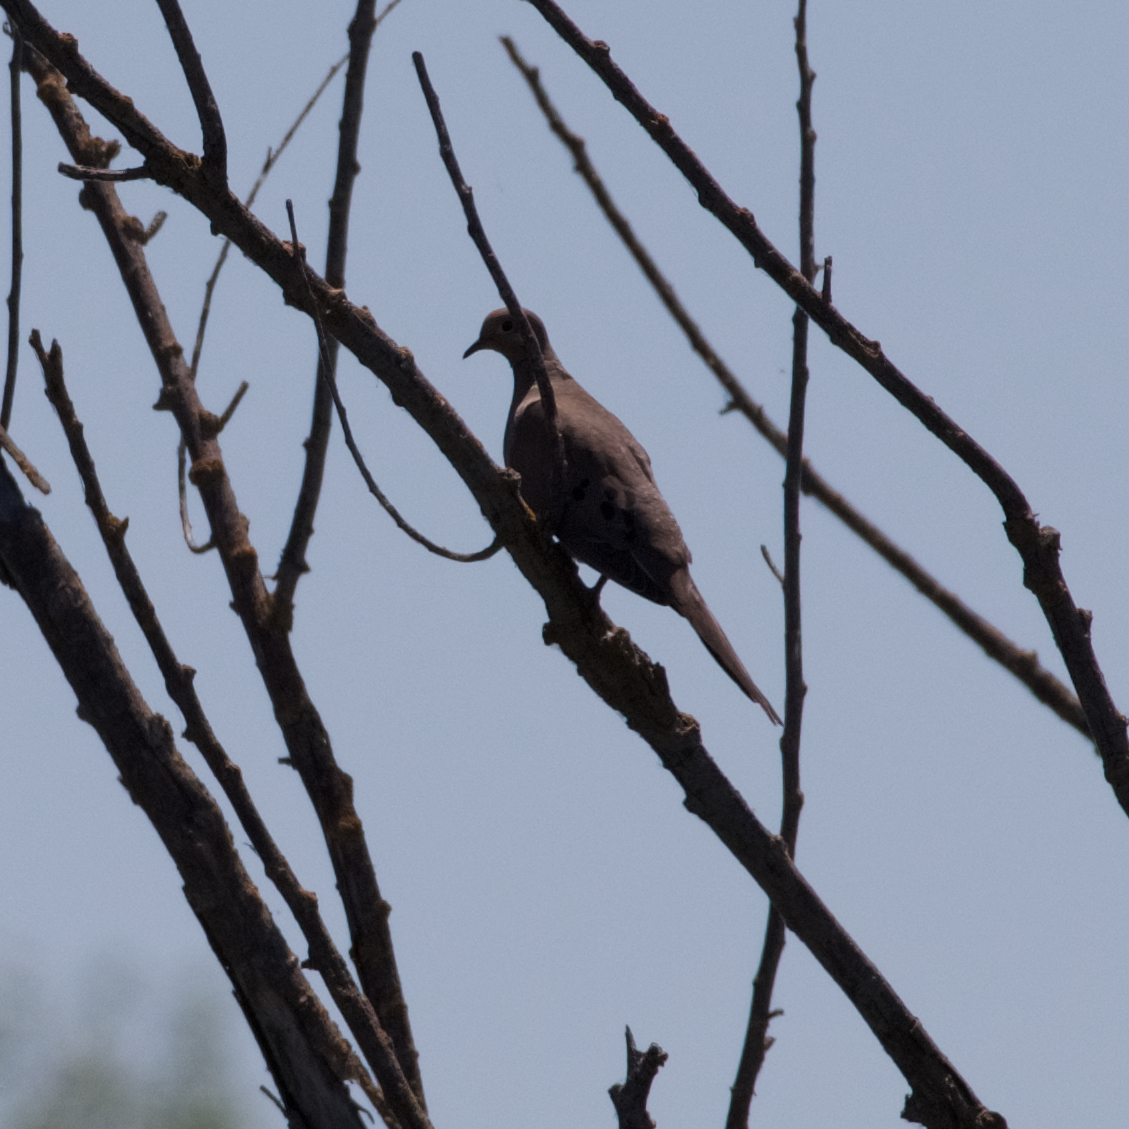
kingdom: Animalia
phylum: Chordata
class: Aves
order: Columbiformes
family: Columbidae
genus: Zenaida
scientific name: Zenaida macroura
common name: Mourning dove
